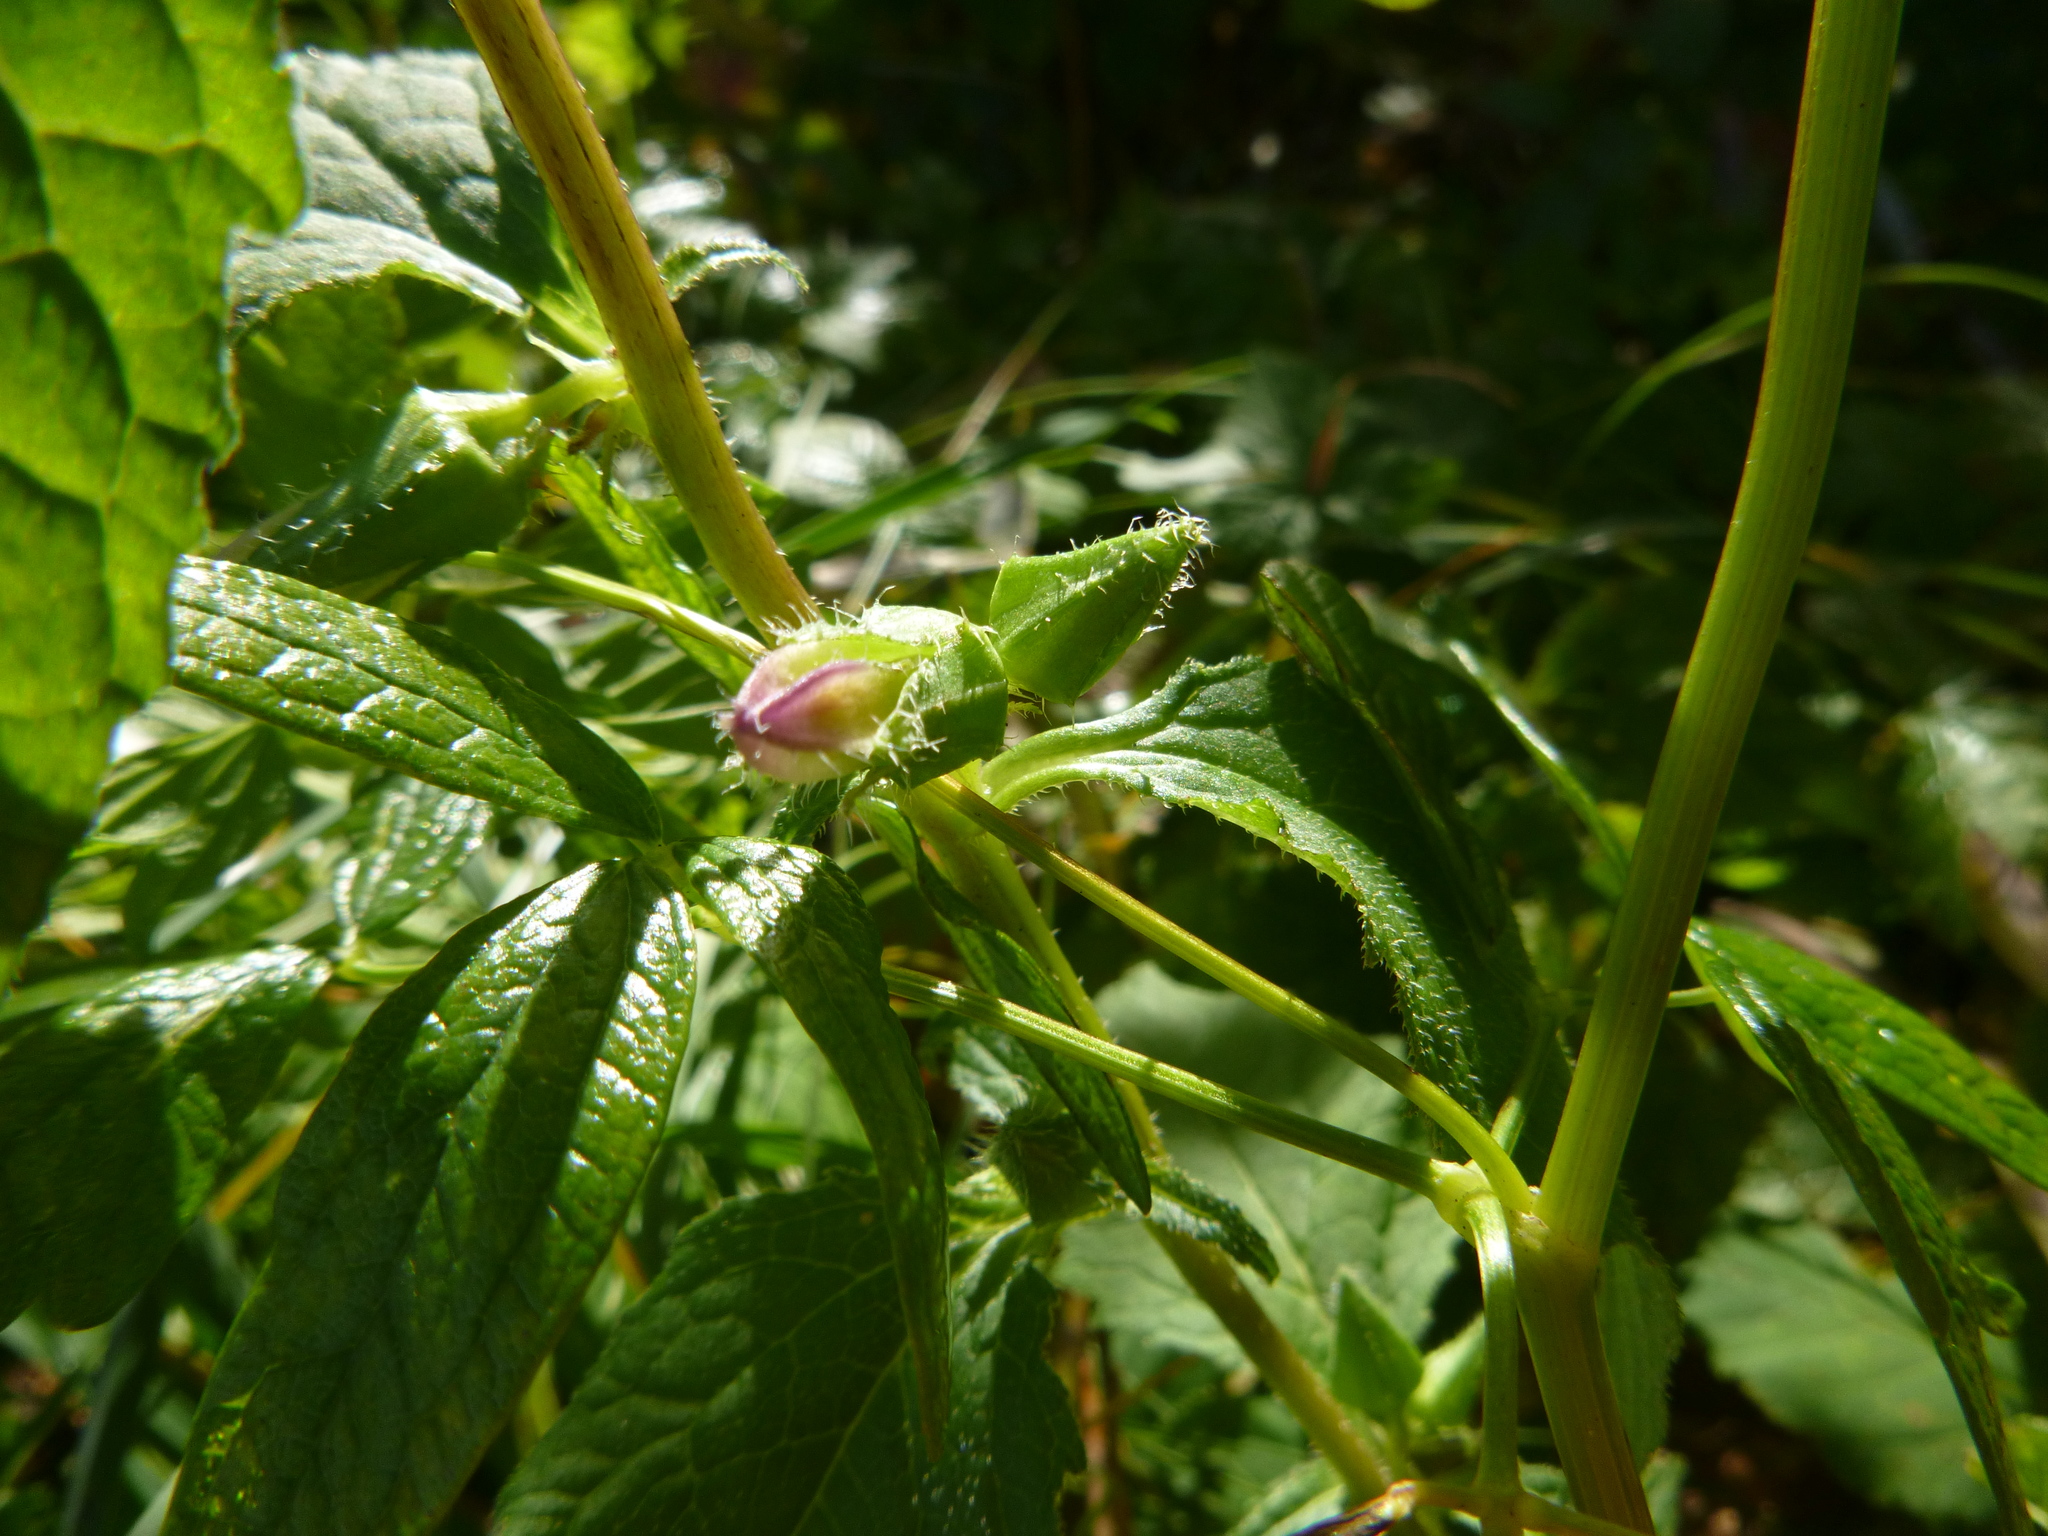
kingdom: Plantae
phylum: Tracheophyta
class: Magnoliopsida
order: Asterales
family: Campanulaceae
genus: Campanula
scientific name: Campanula trachelium
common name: Nettle-leaved bellflower
